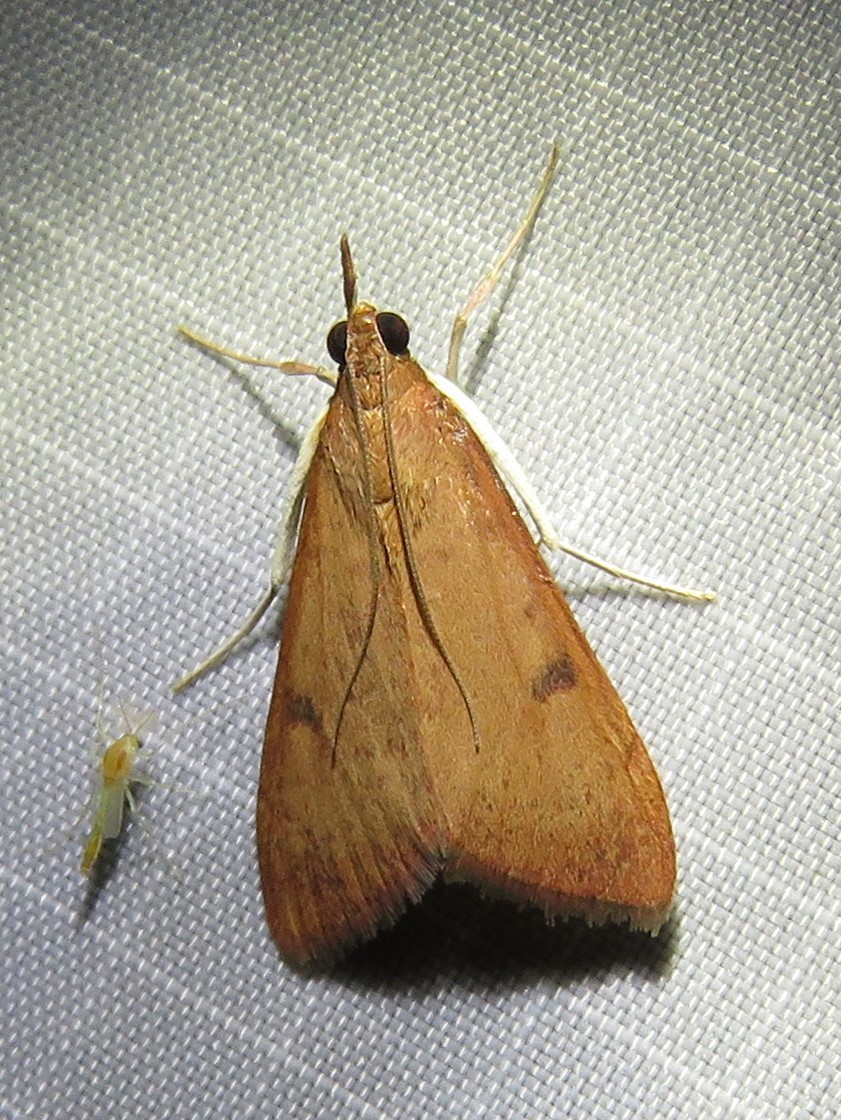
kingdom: Animalia
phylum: Arthropoda
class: Insecta
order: Lepidoptera
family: Crambidae
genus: Uresiphita
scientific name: Uresiphita reversalis
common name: Genista broom moth
